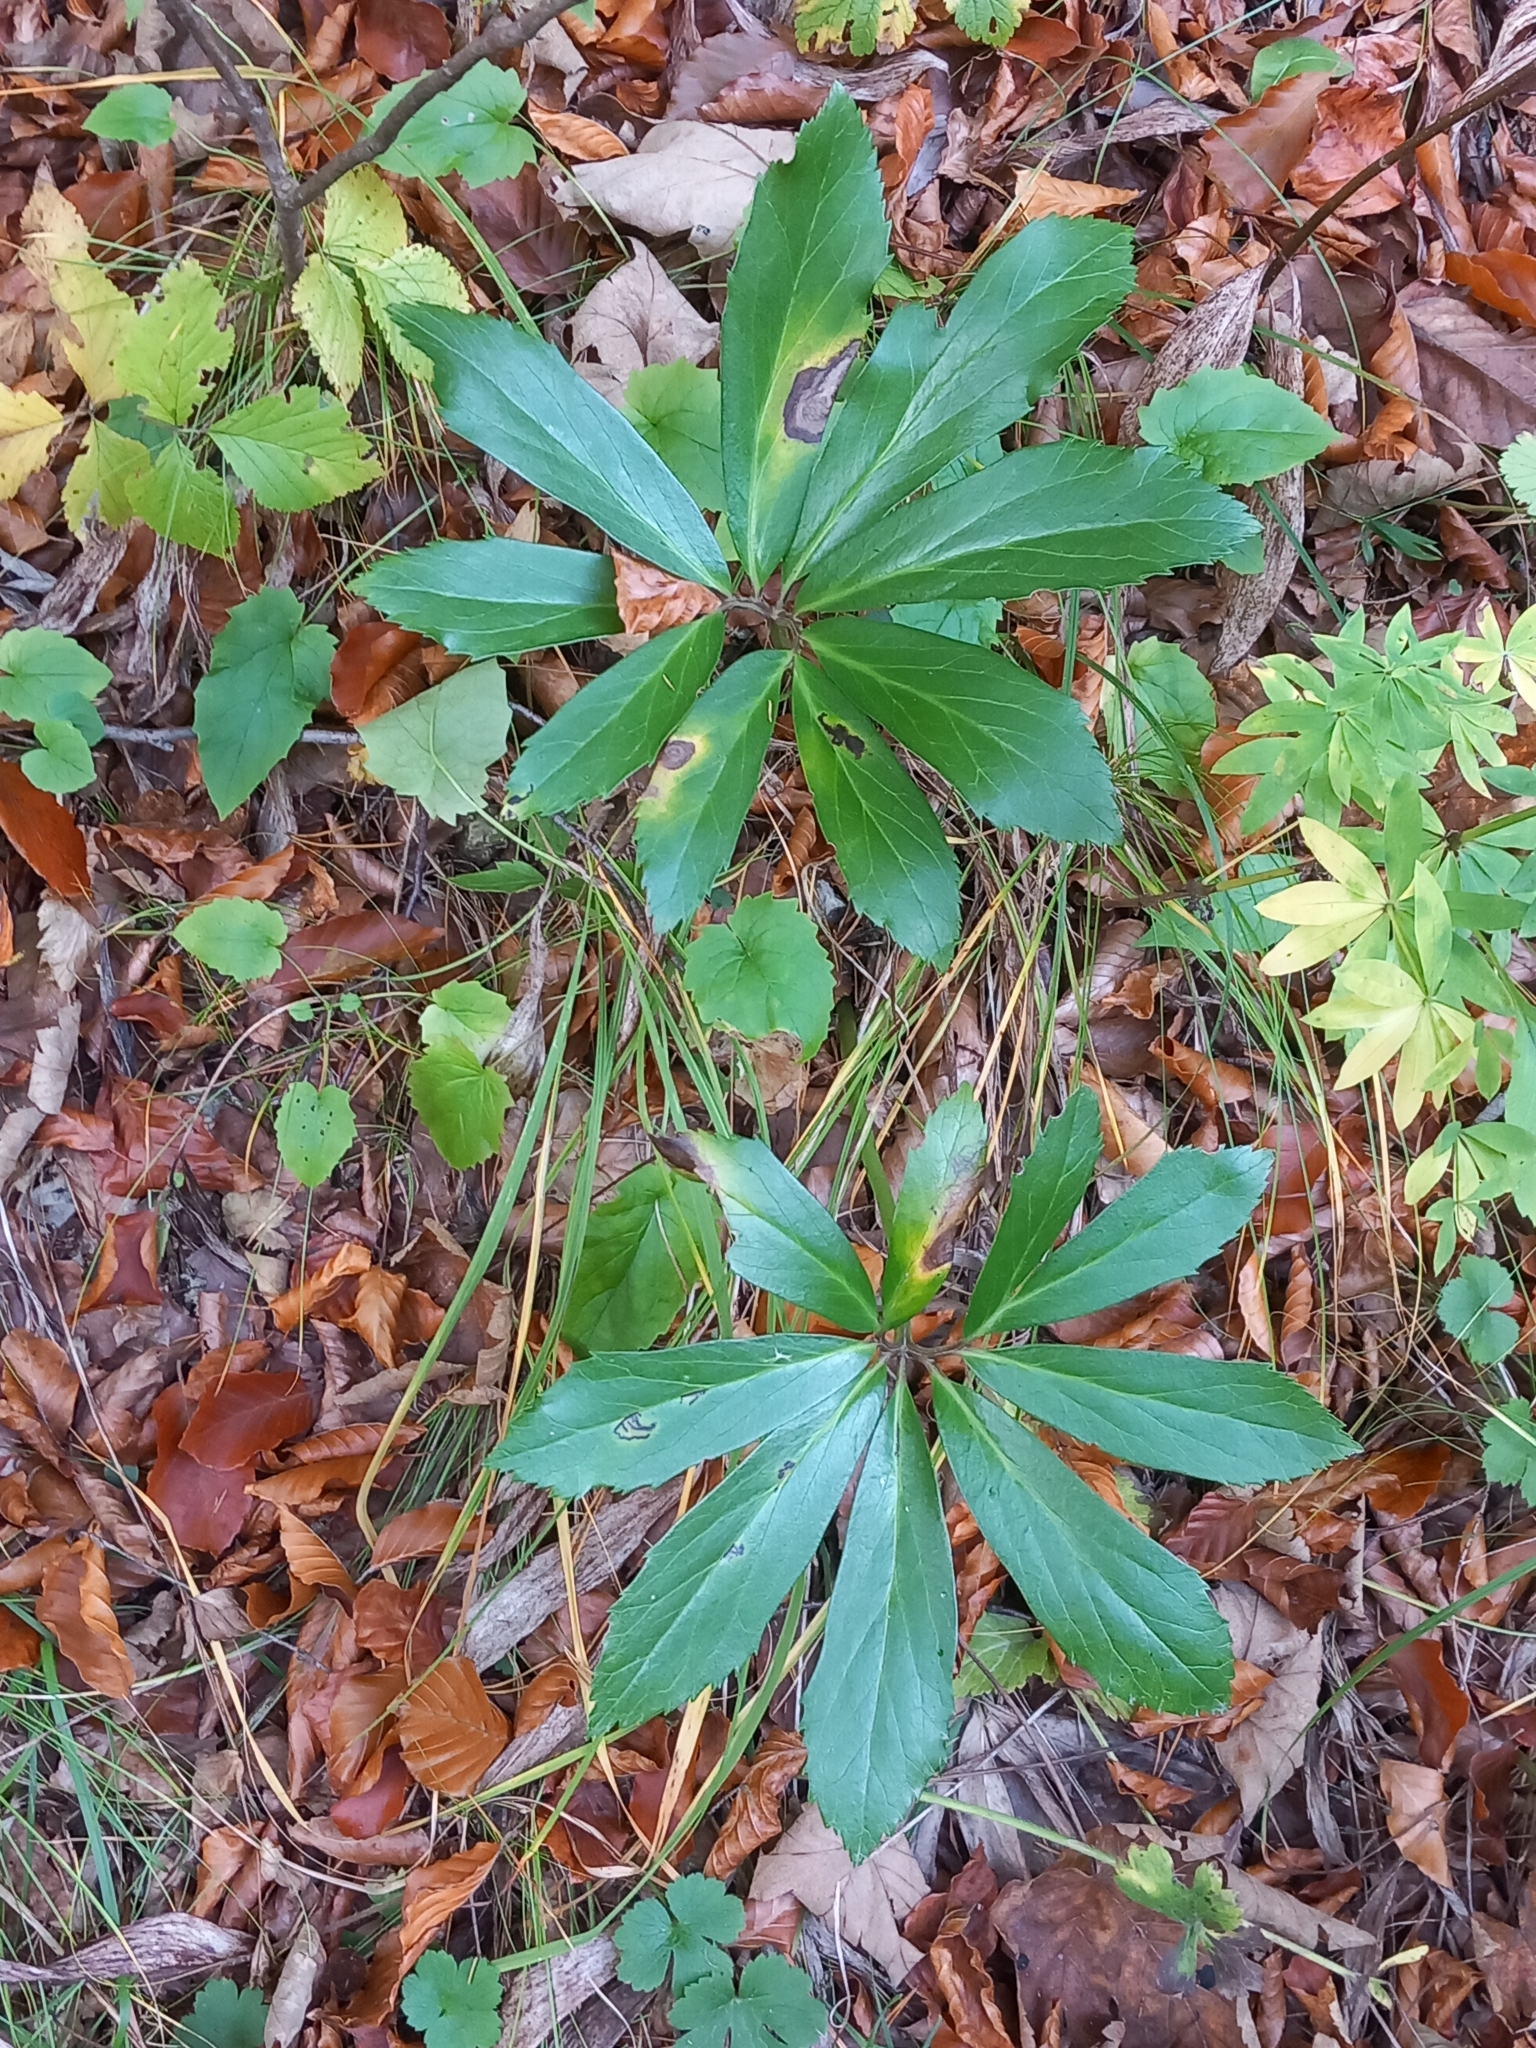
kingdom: Plantae
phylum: Tracheophyta
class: Magnoliopsida
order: Ranunculales
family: Ranunculaceae
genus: Helleborus
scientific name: Helleborus niger
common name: Black hellebore
